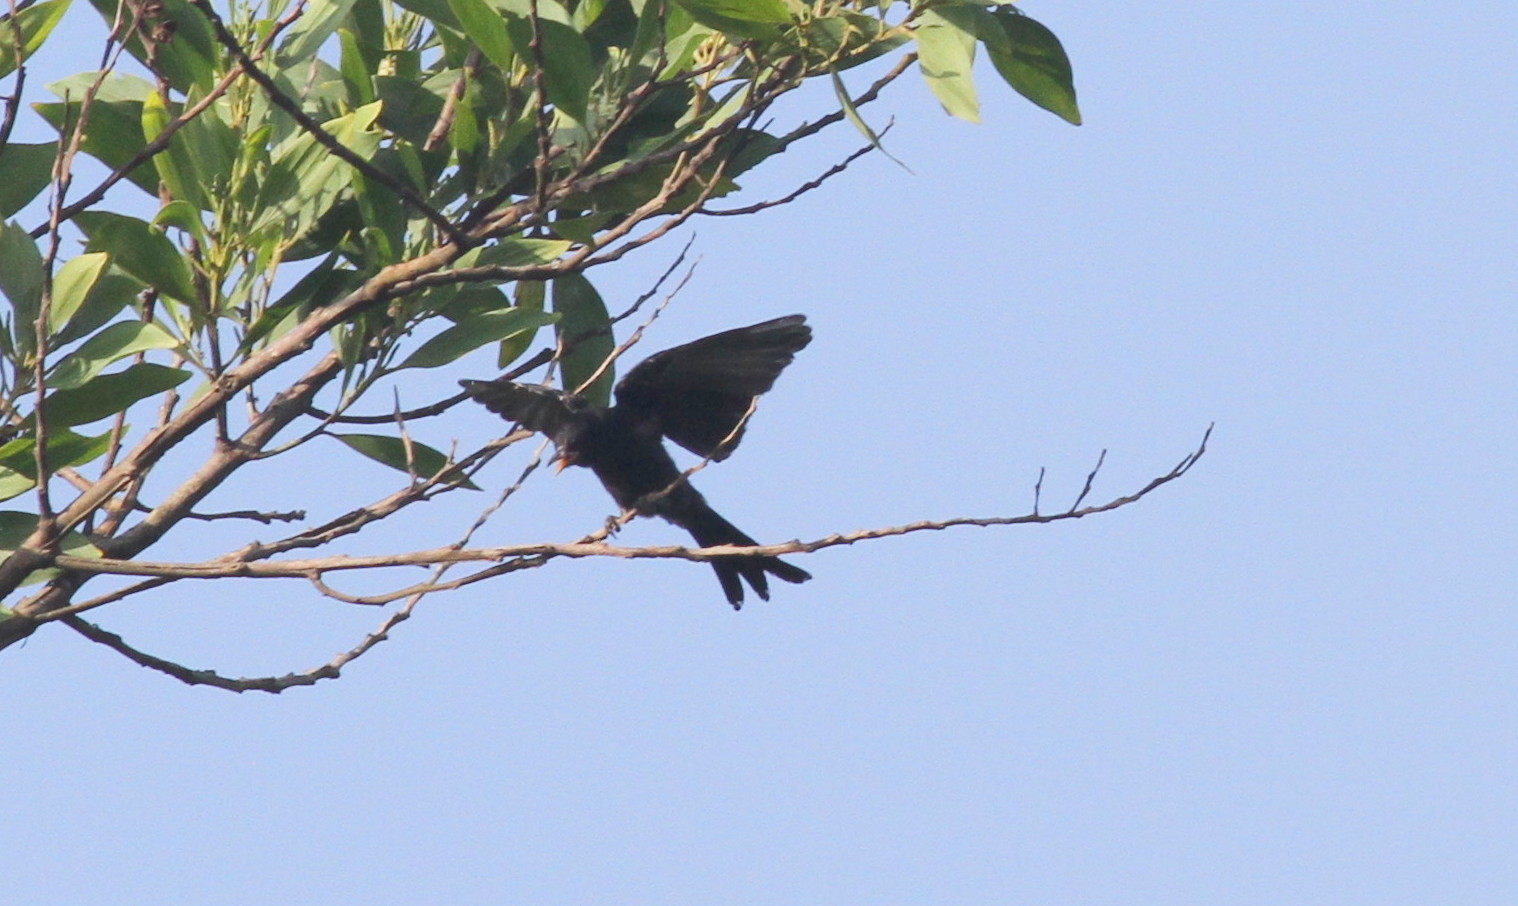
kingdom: Animalia
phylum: Chordata
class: Aves
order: Passeriformes
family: Dicruridae
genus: Dicrurus
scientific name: Dicrurus macrocercus
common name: Black drongo
